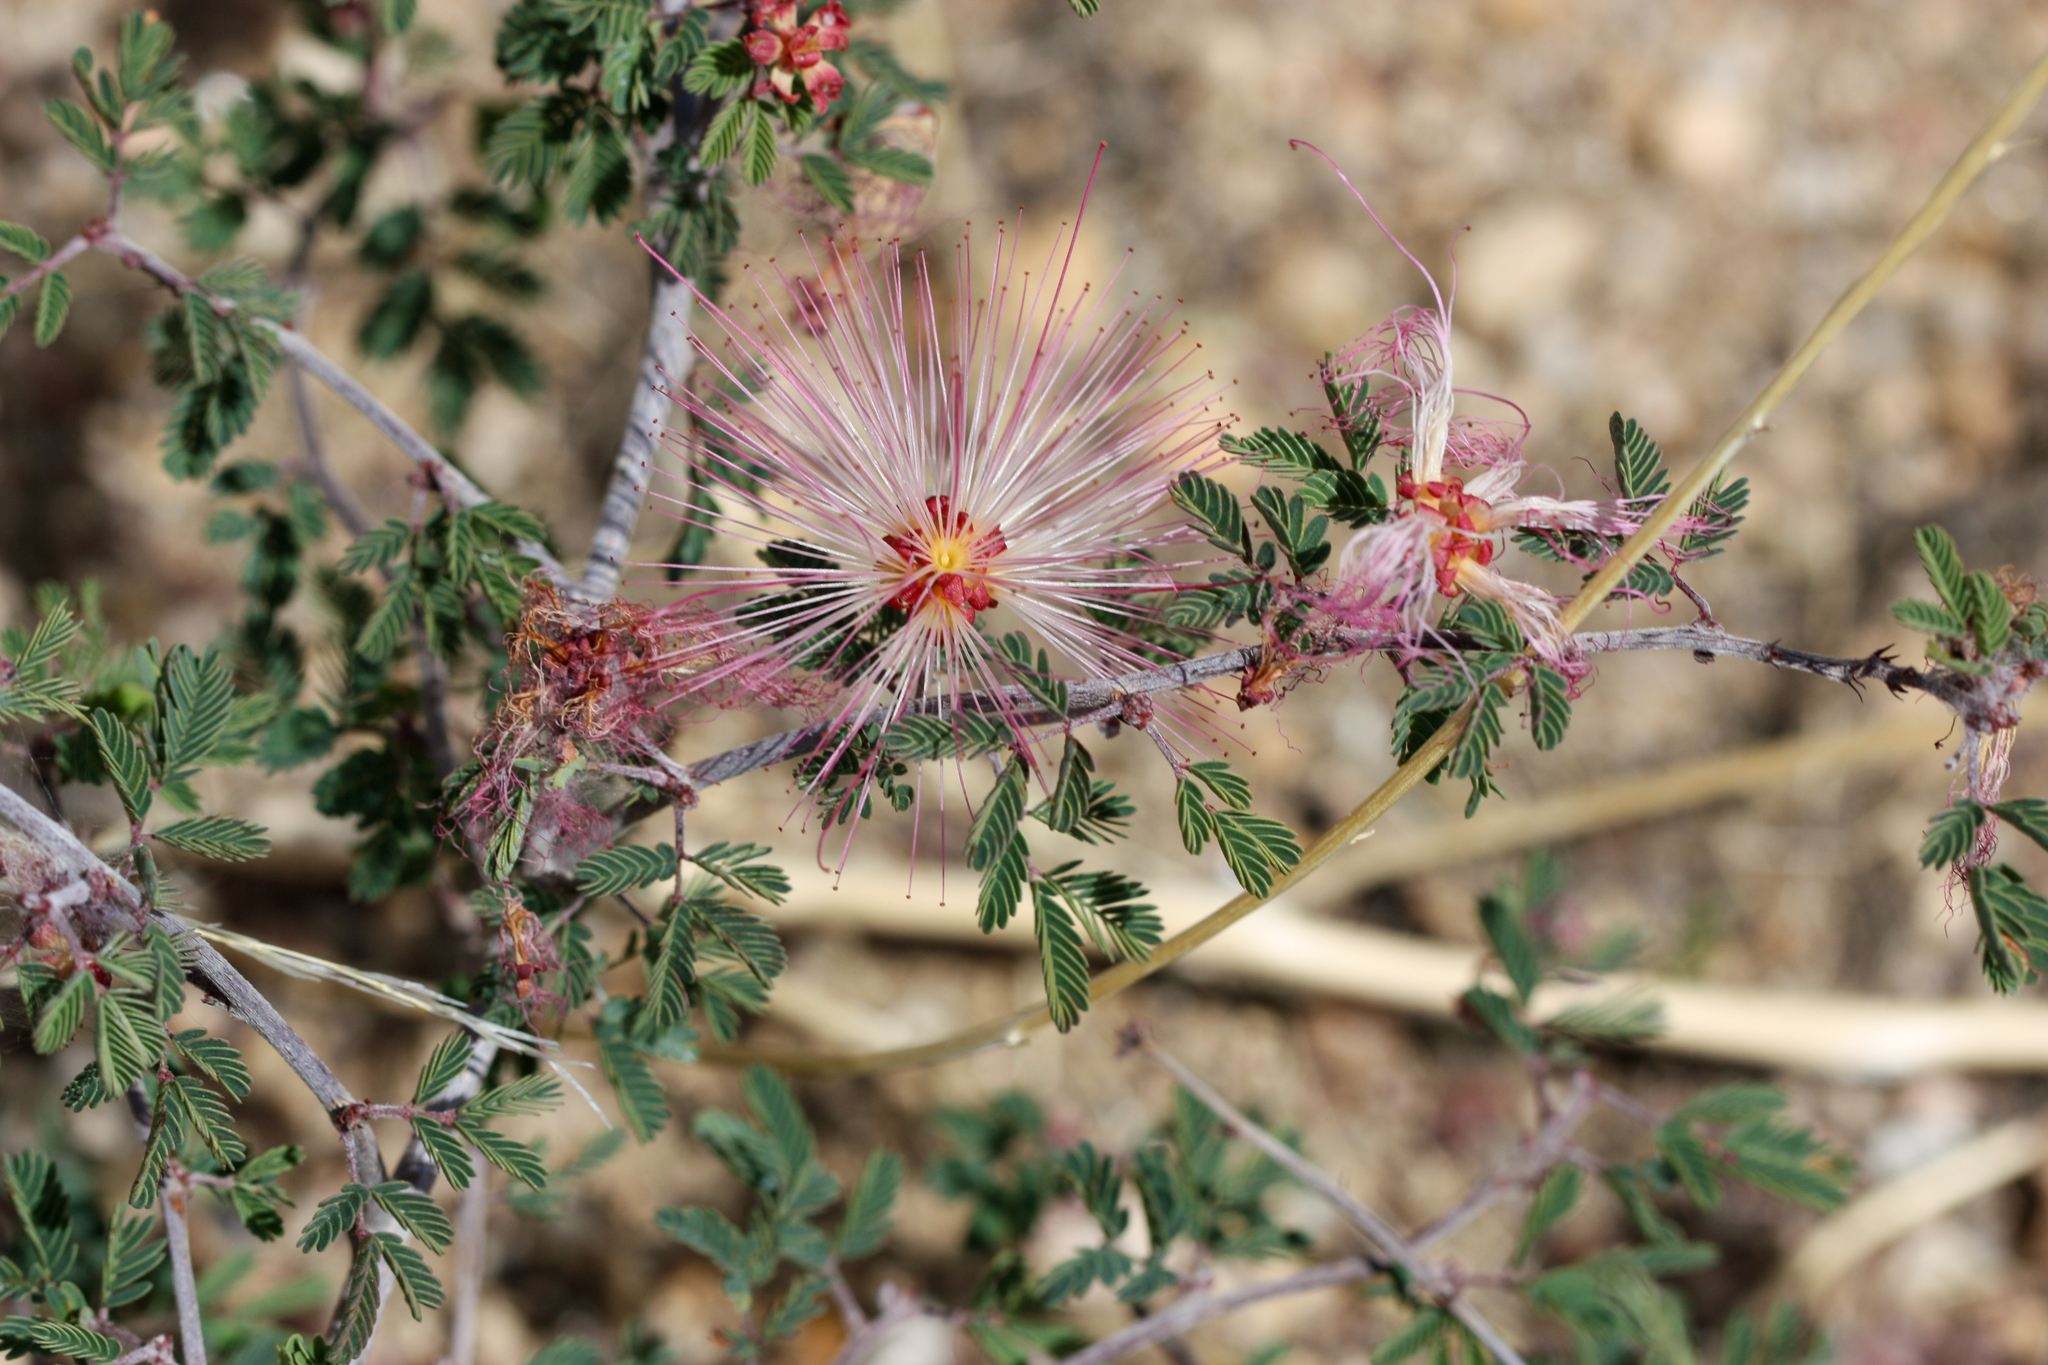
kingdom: Plantae
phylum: Tracheophyta
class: Magnoliopsida
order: Fabales
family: Fabaceae
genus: Calliandra
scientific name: Calliandra eriophylla
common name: Fairy-duster
